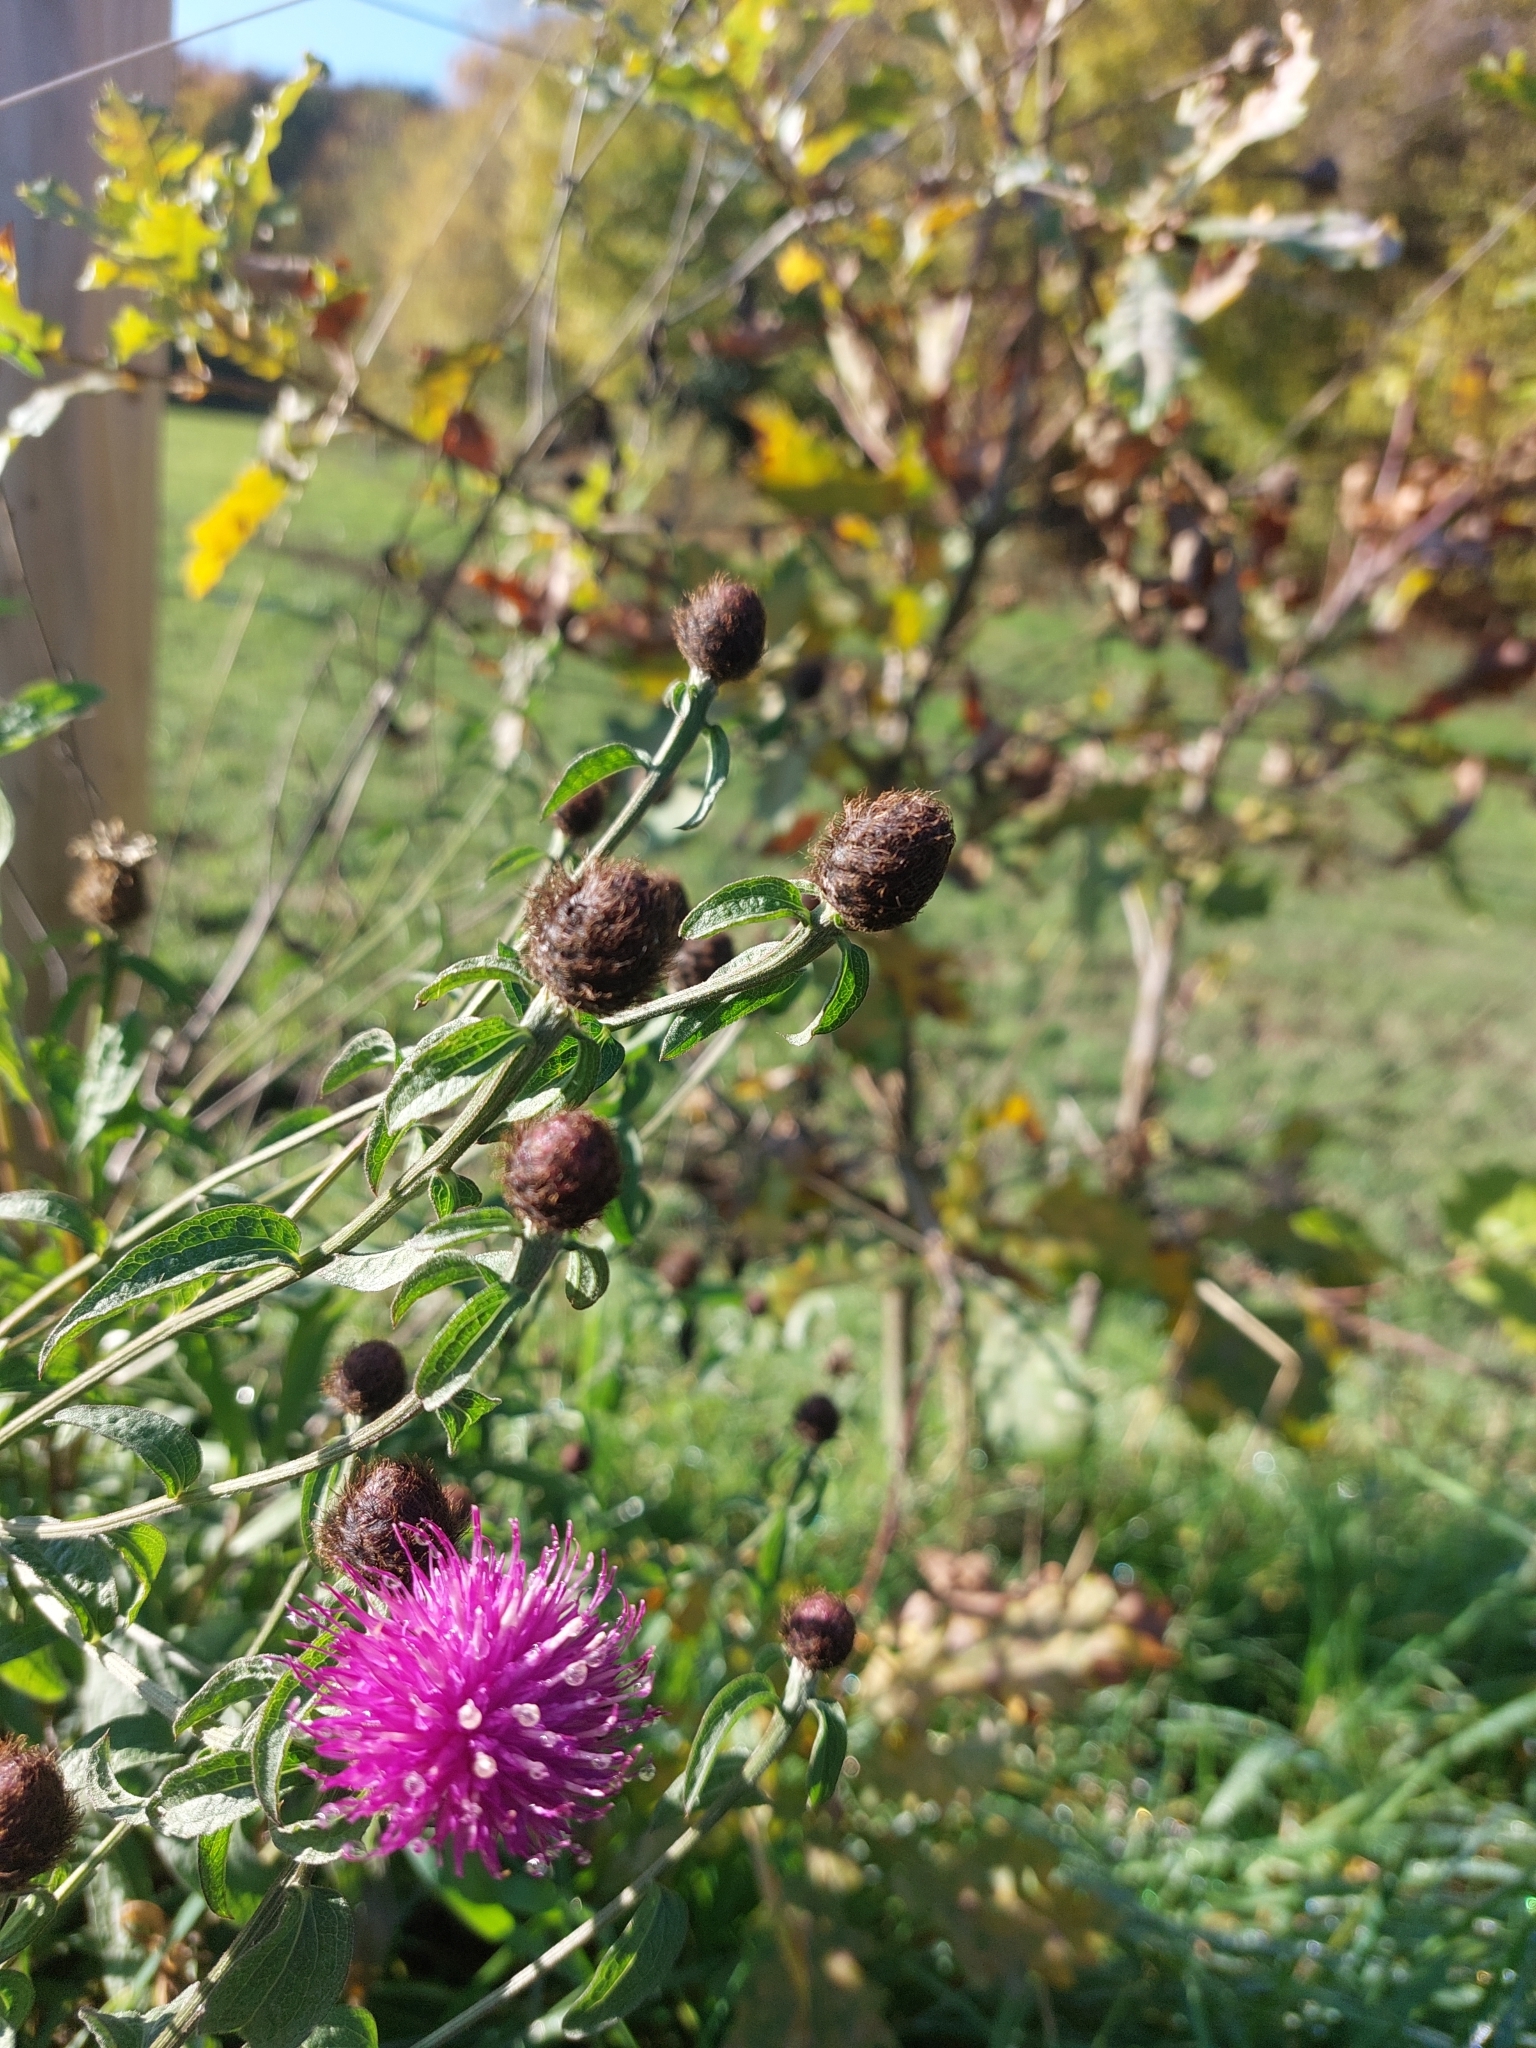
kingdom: Plantae
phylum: Tracheophyta
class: Magnoliopsida
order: Asterales
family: Asteraceae
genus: Centaurea
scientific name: Centaurea nigra
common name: Lesser knapweed
